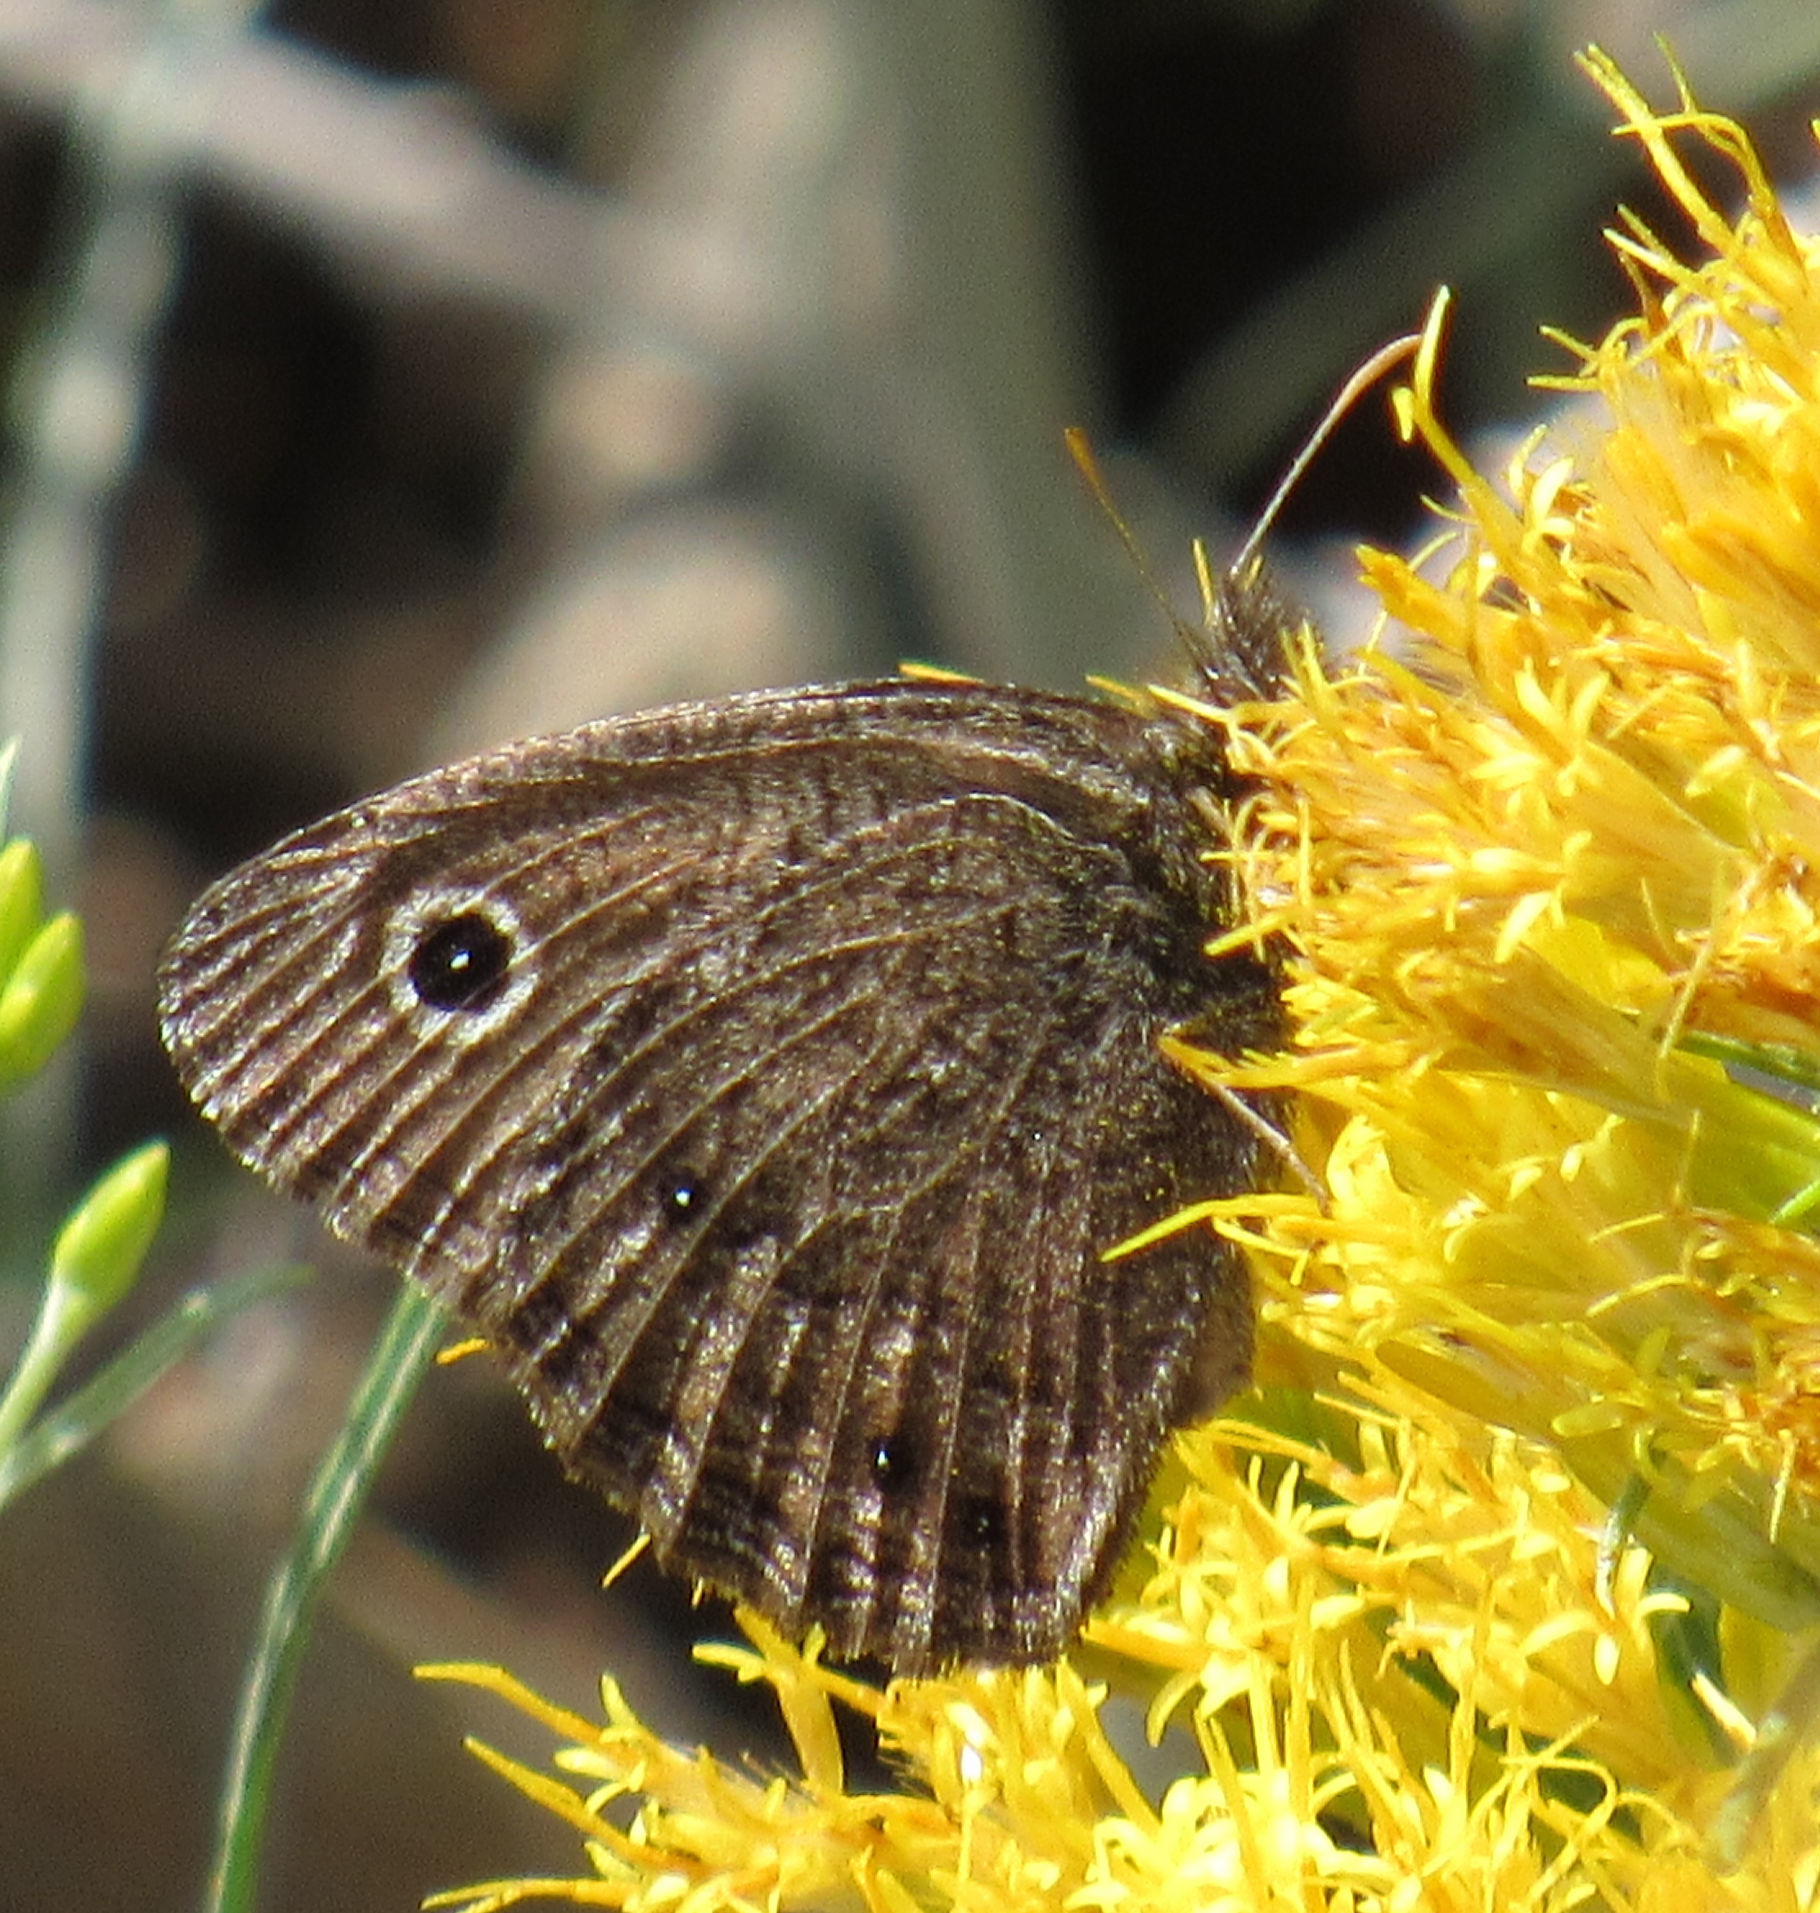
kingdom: Animalia
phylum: Arthropoda
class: Insecta
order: Lepidoptera
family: Nymphalidae
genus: Cercyonis
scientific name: Cercyonis oetus
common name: Small wood-nymph
